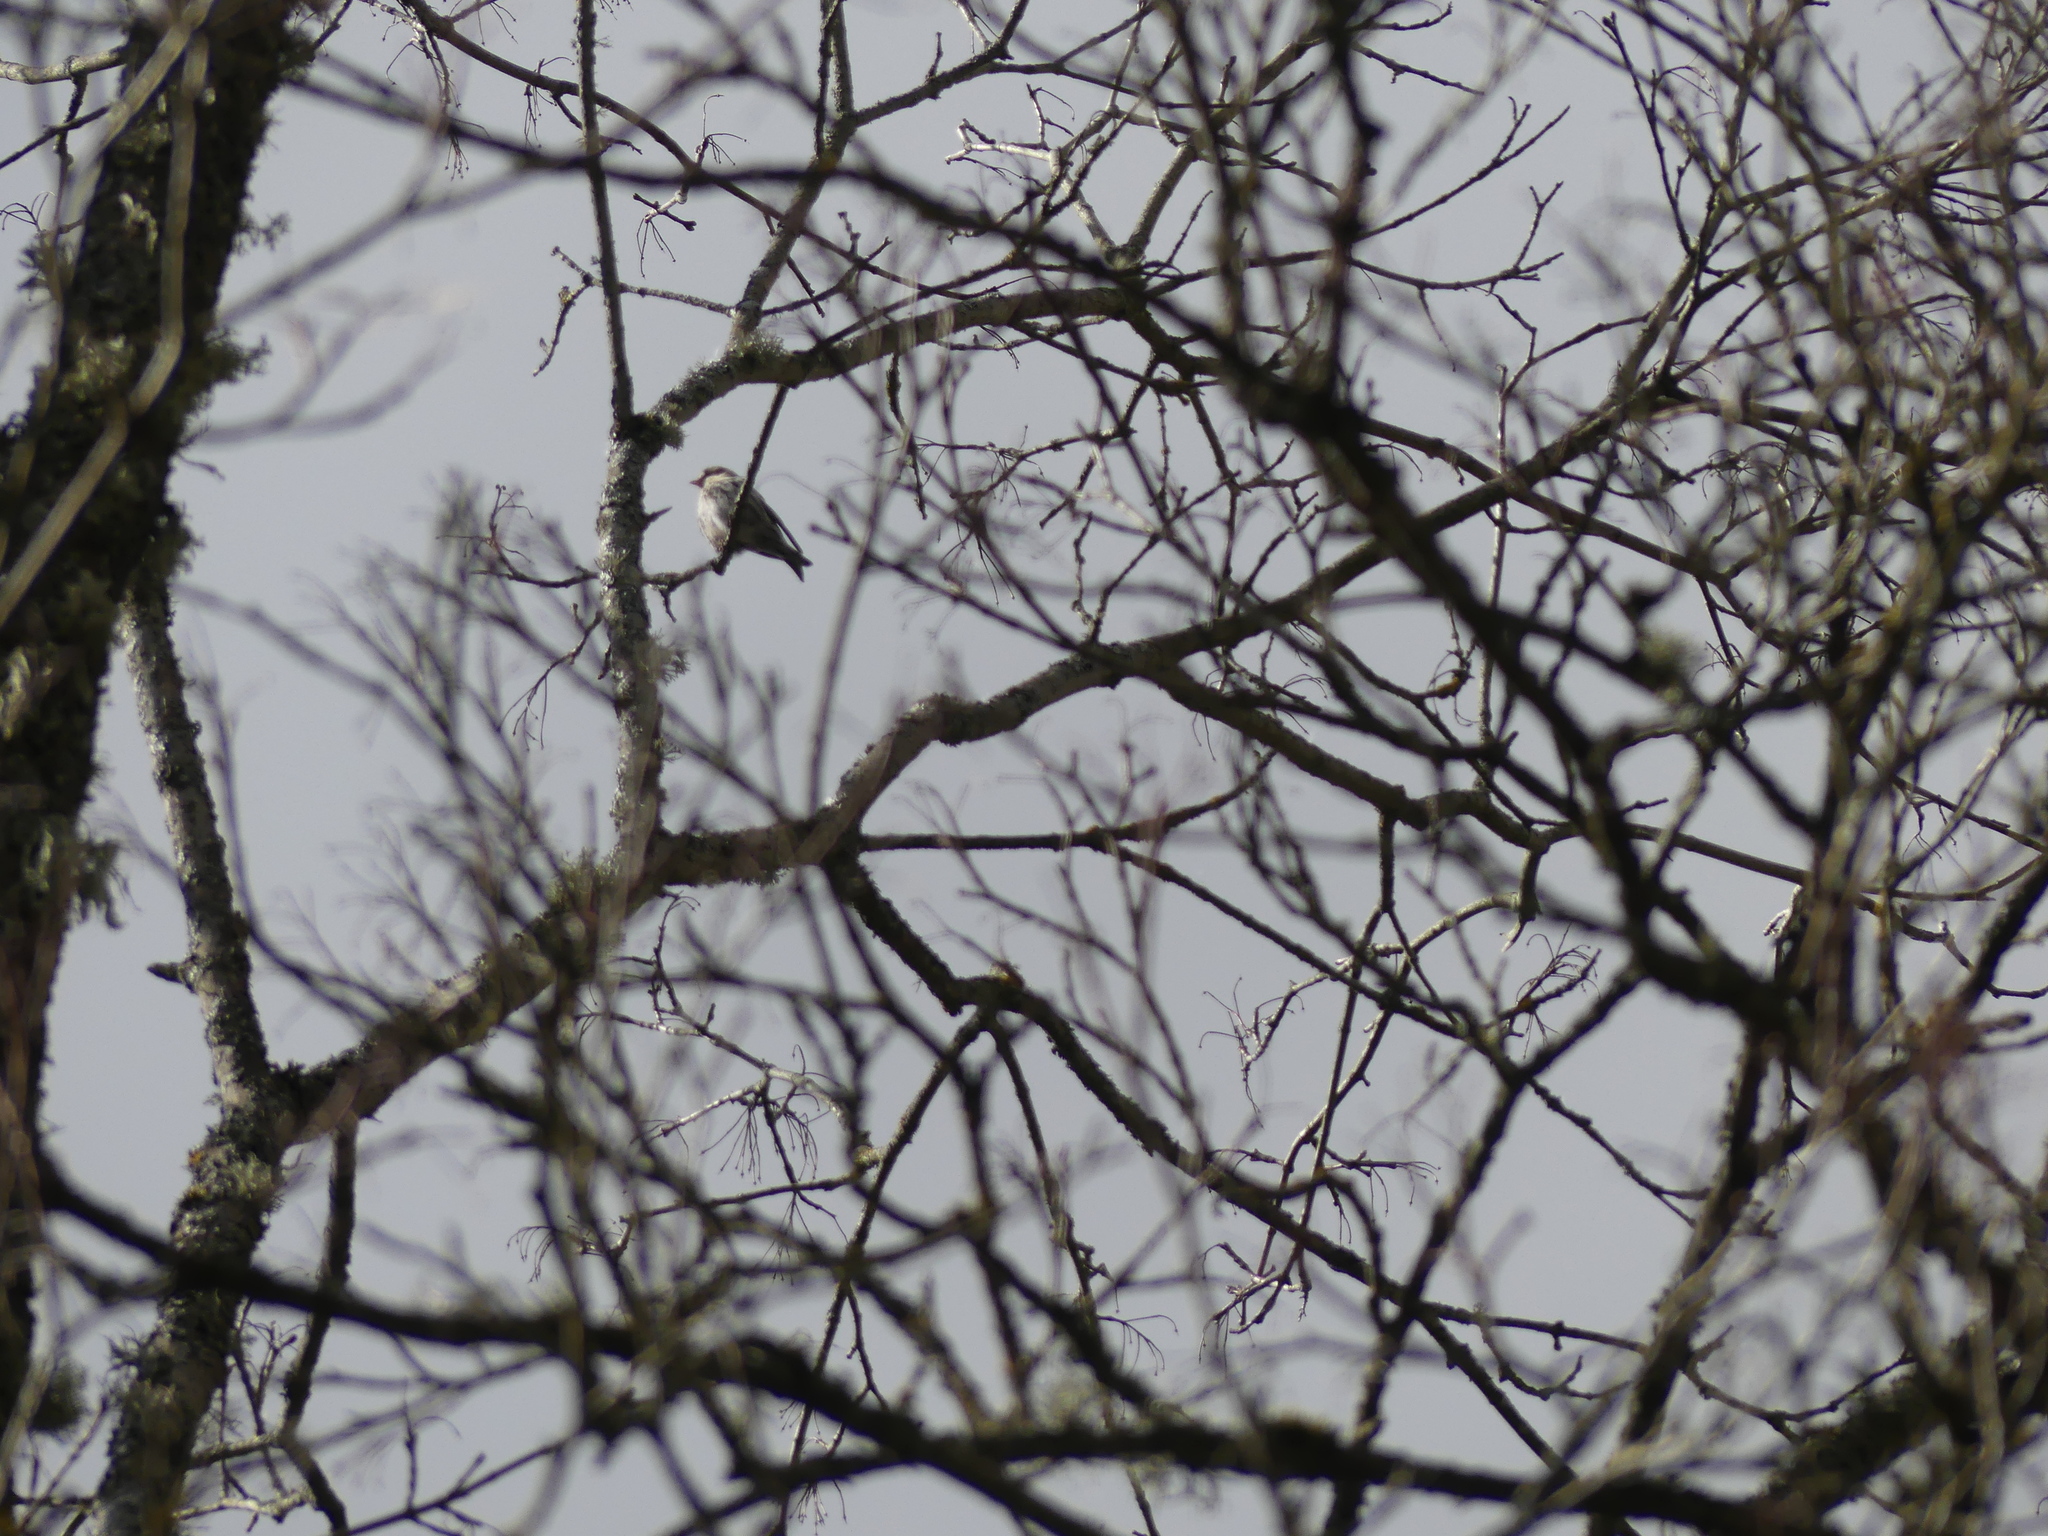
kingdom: Animalia
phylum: Chordata
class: Aves
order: Passeriformes
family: Fringillidae
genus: Spinus
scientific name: Spinus spinus
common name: Eurasian siskin
